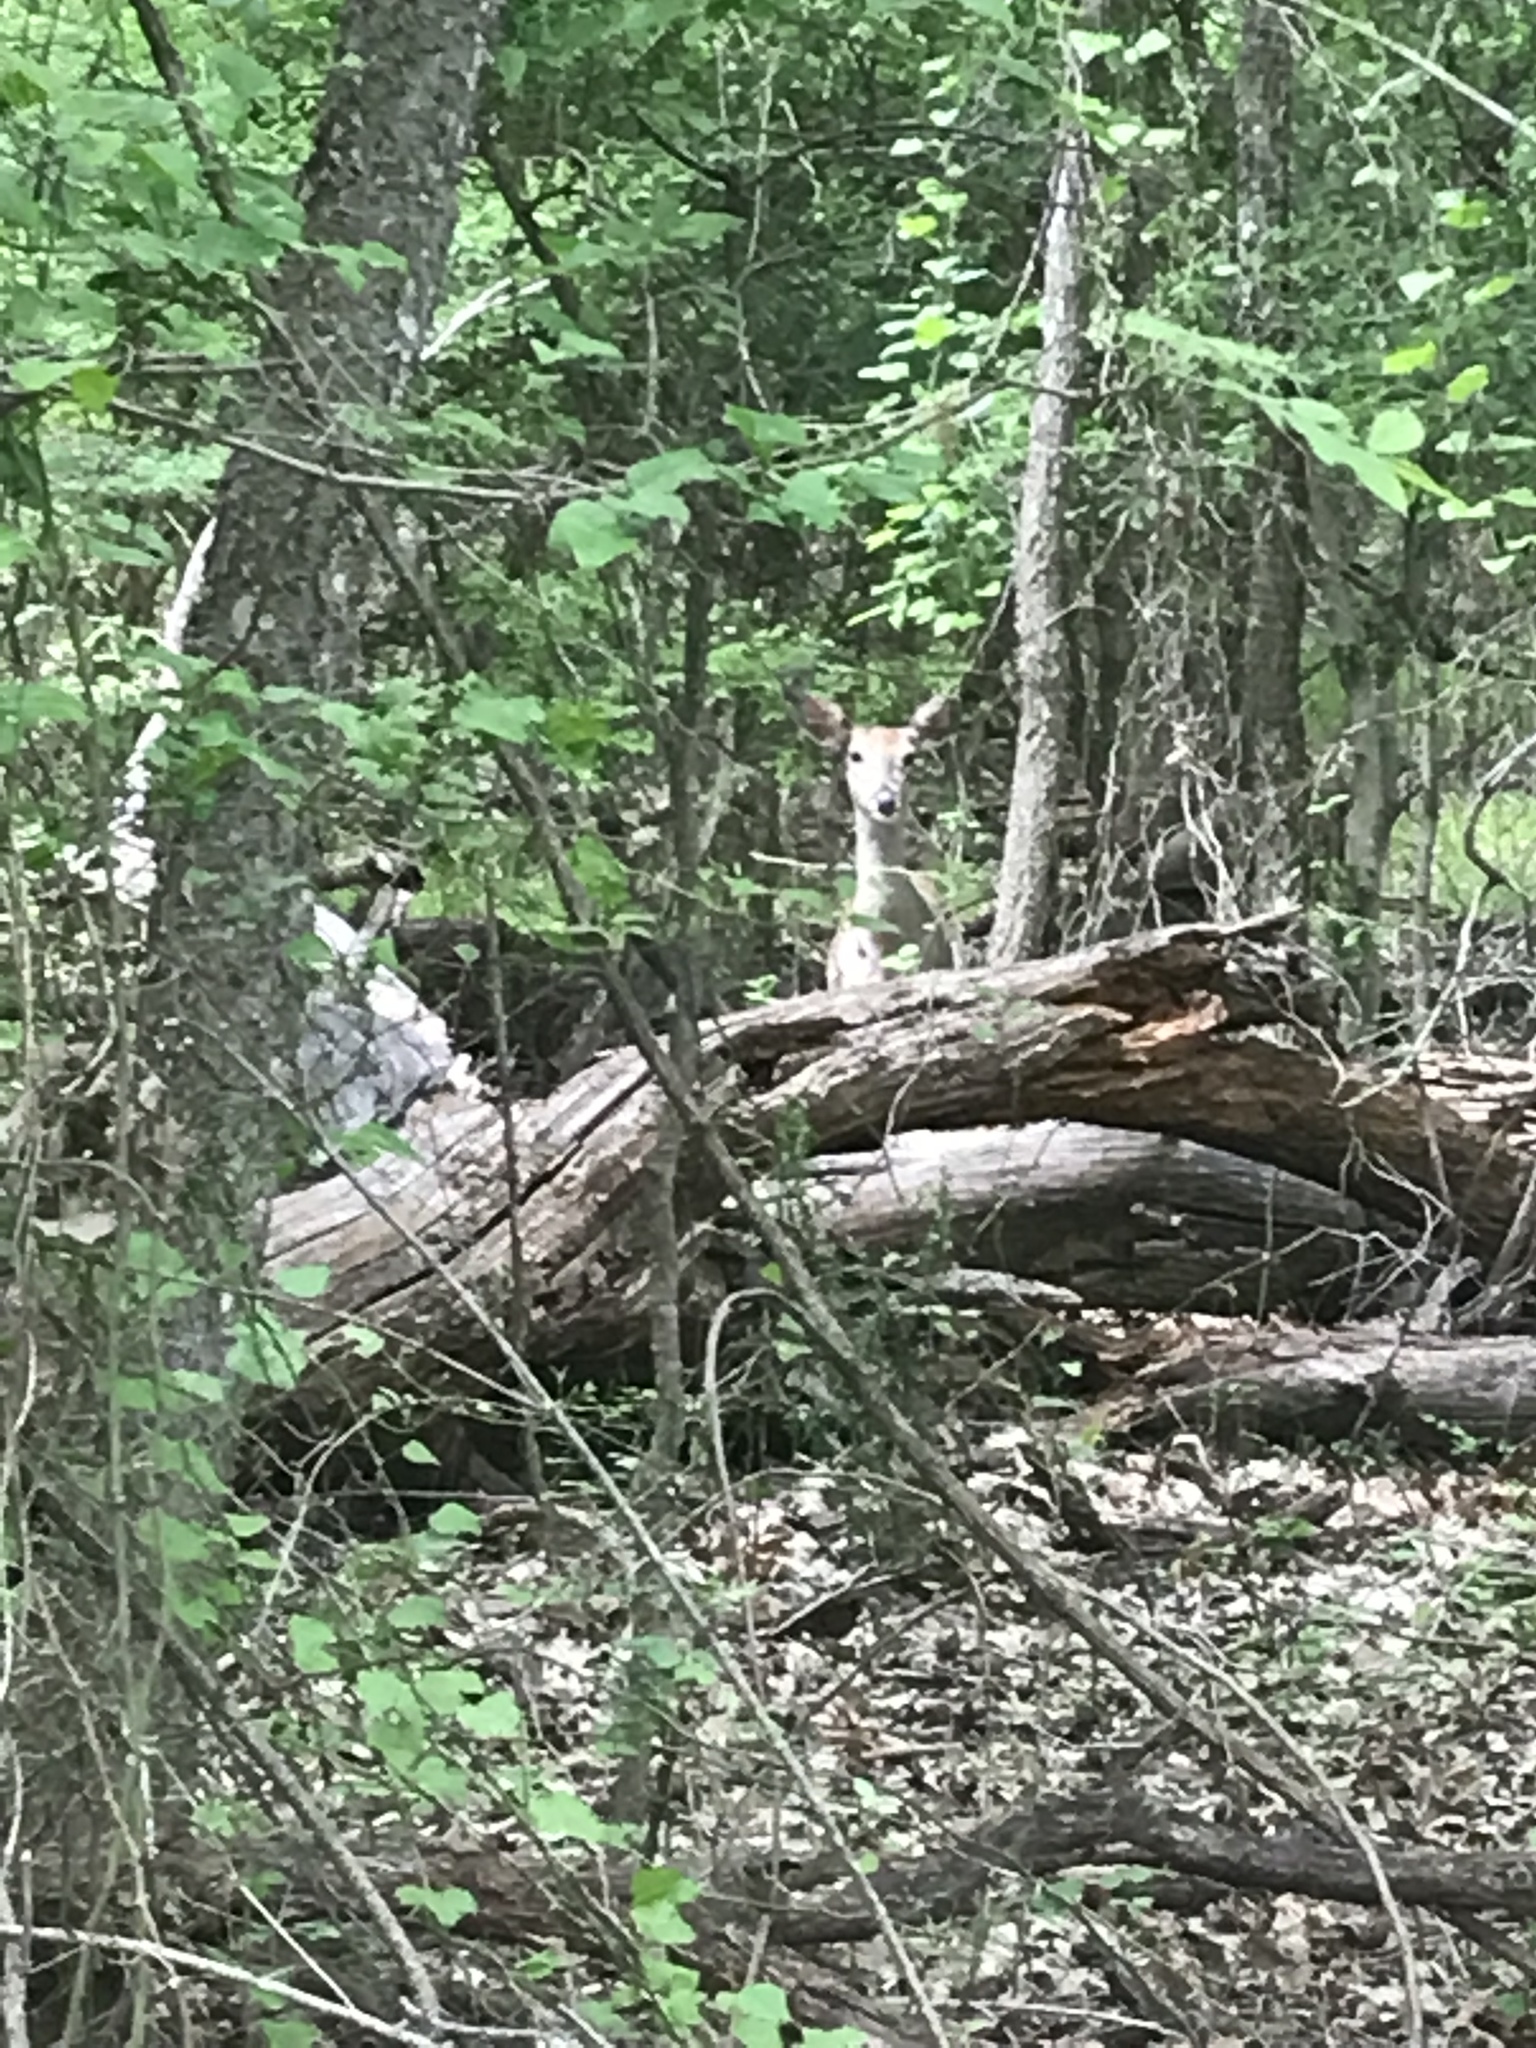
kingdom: Animalia
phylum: Chordata
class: Mammalia
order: Artiodactyla
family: Cervidae
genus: Odocoileus
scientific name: Odocoileus virginianus
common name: White-tailed deer
